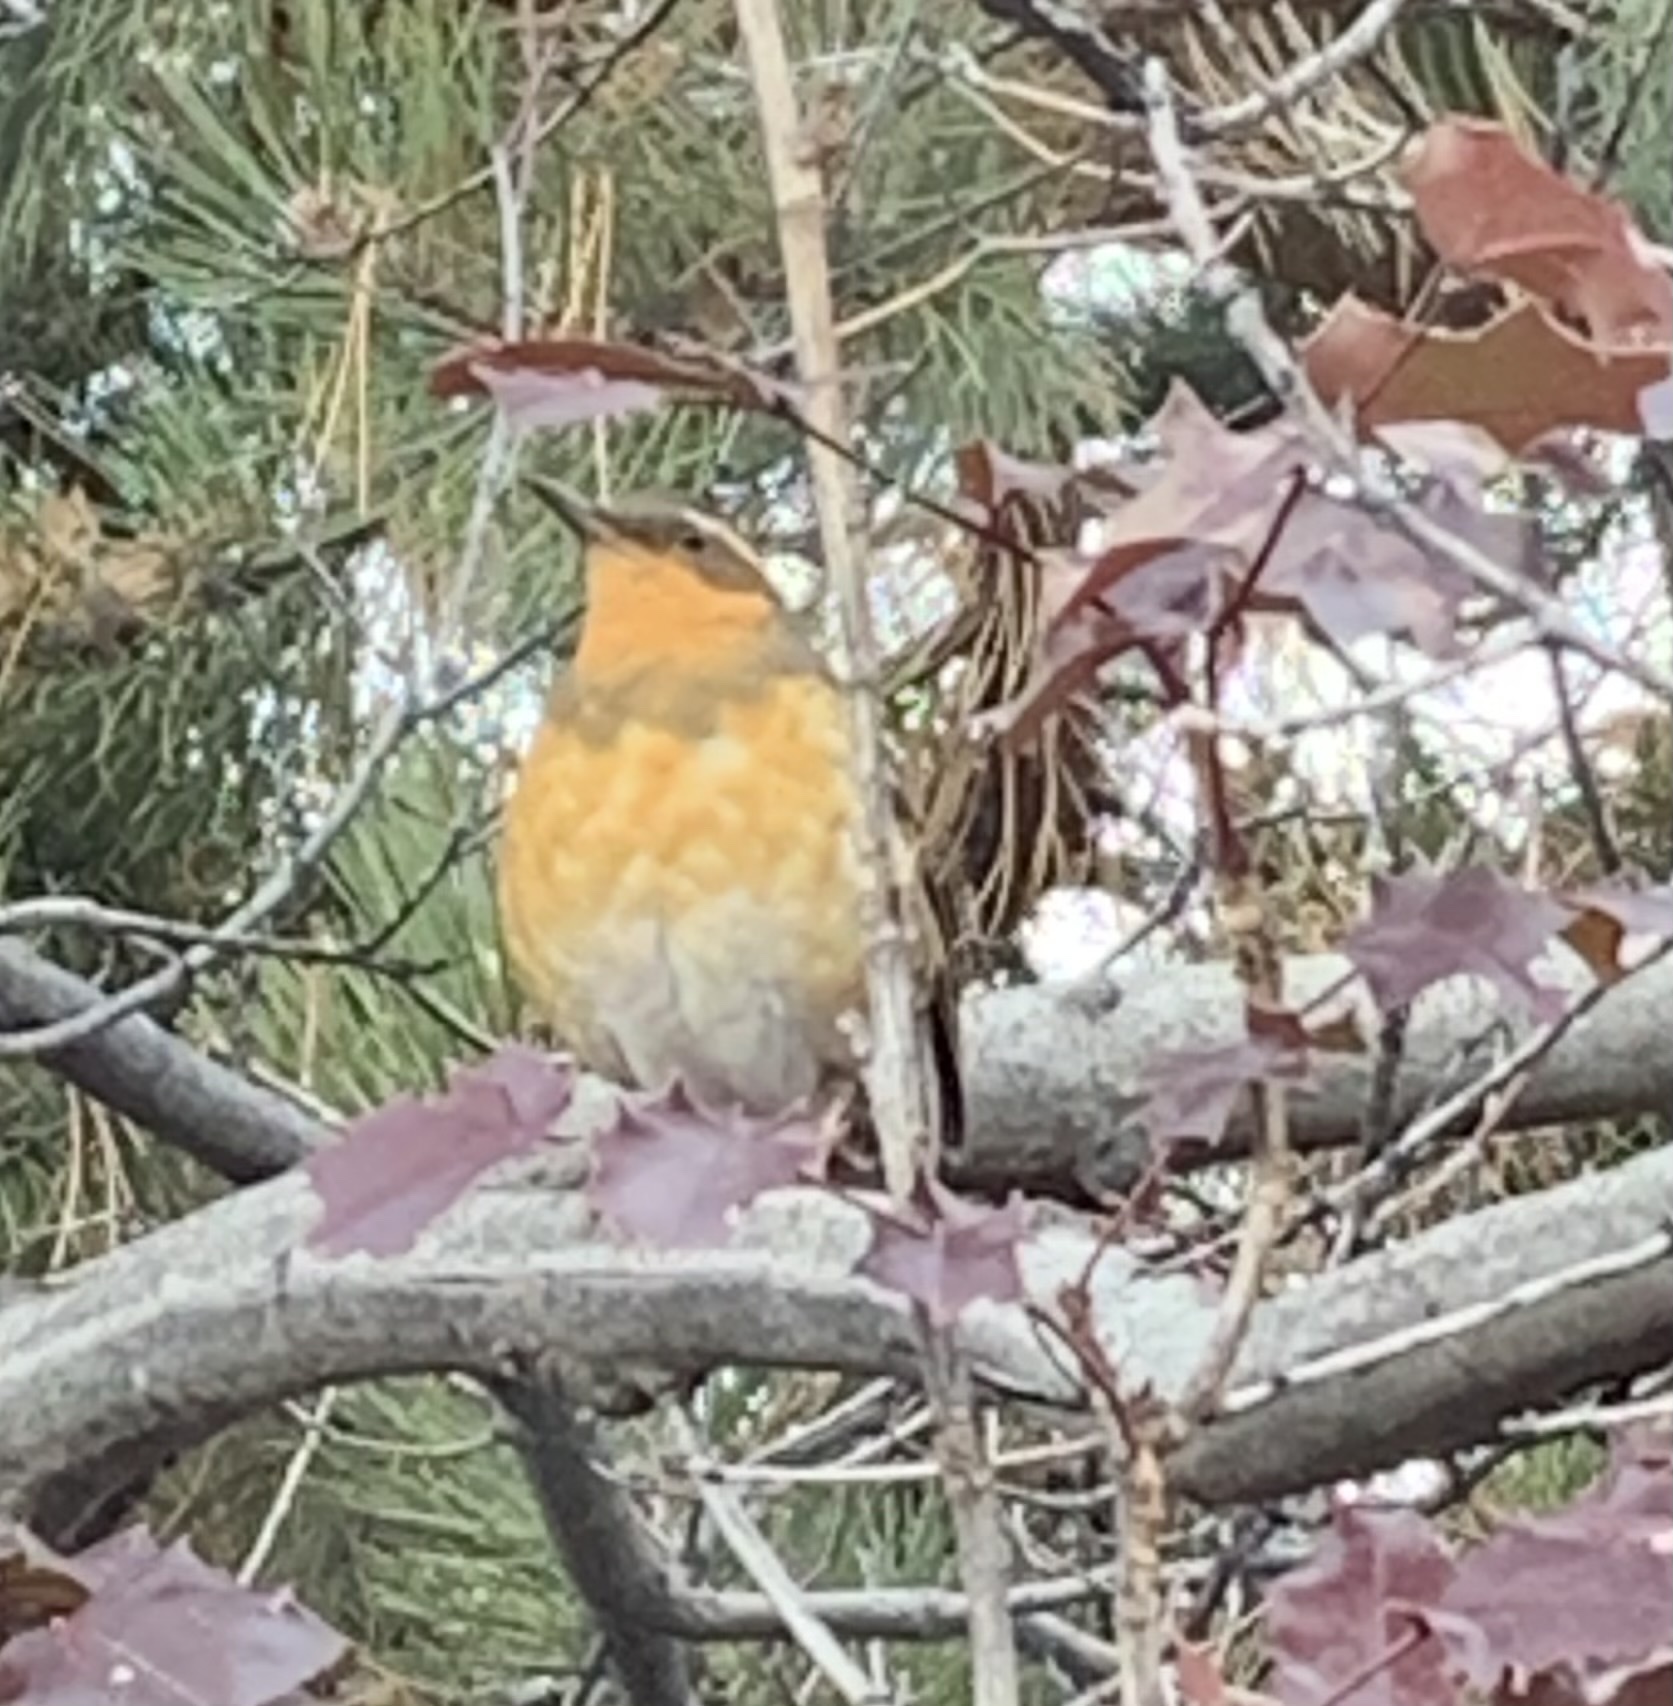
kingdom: Animalia
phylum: Chordata
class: Aves
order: Passeriformes
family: Turdidae
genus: Ixoreus
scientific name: Ixoreus naevius
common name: Varied thrush
